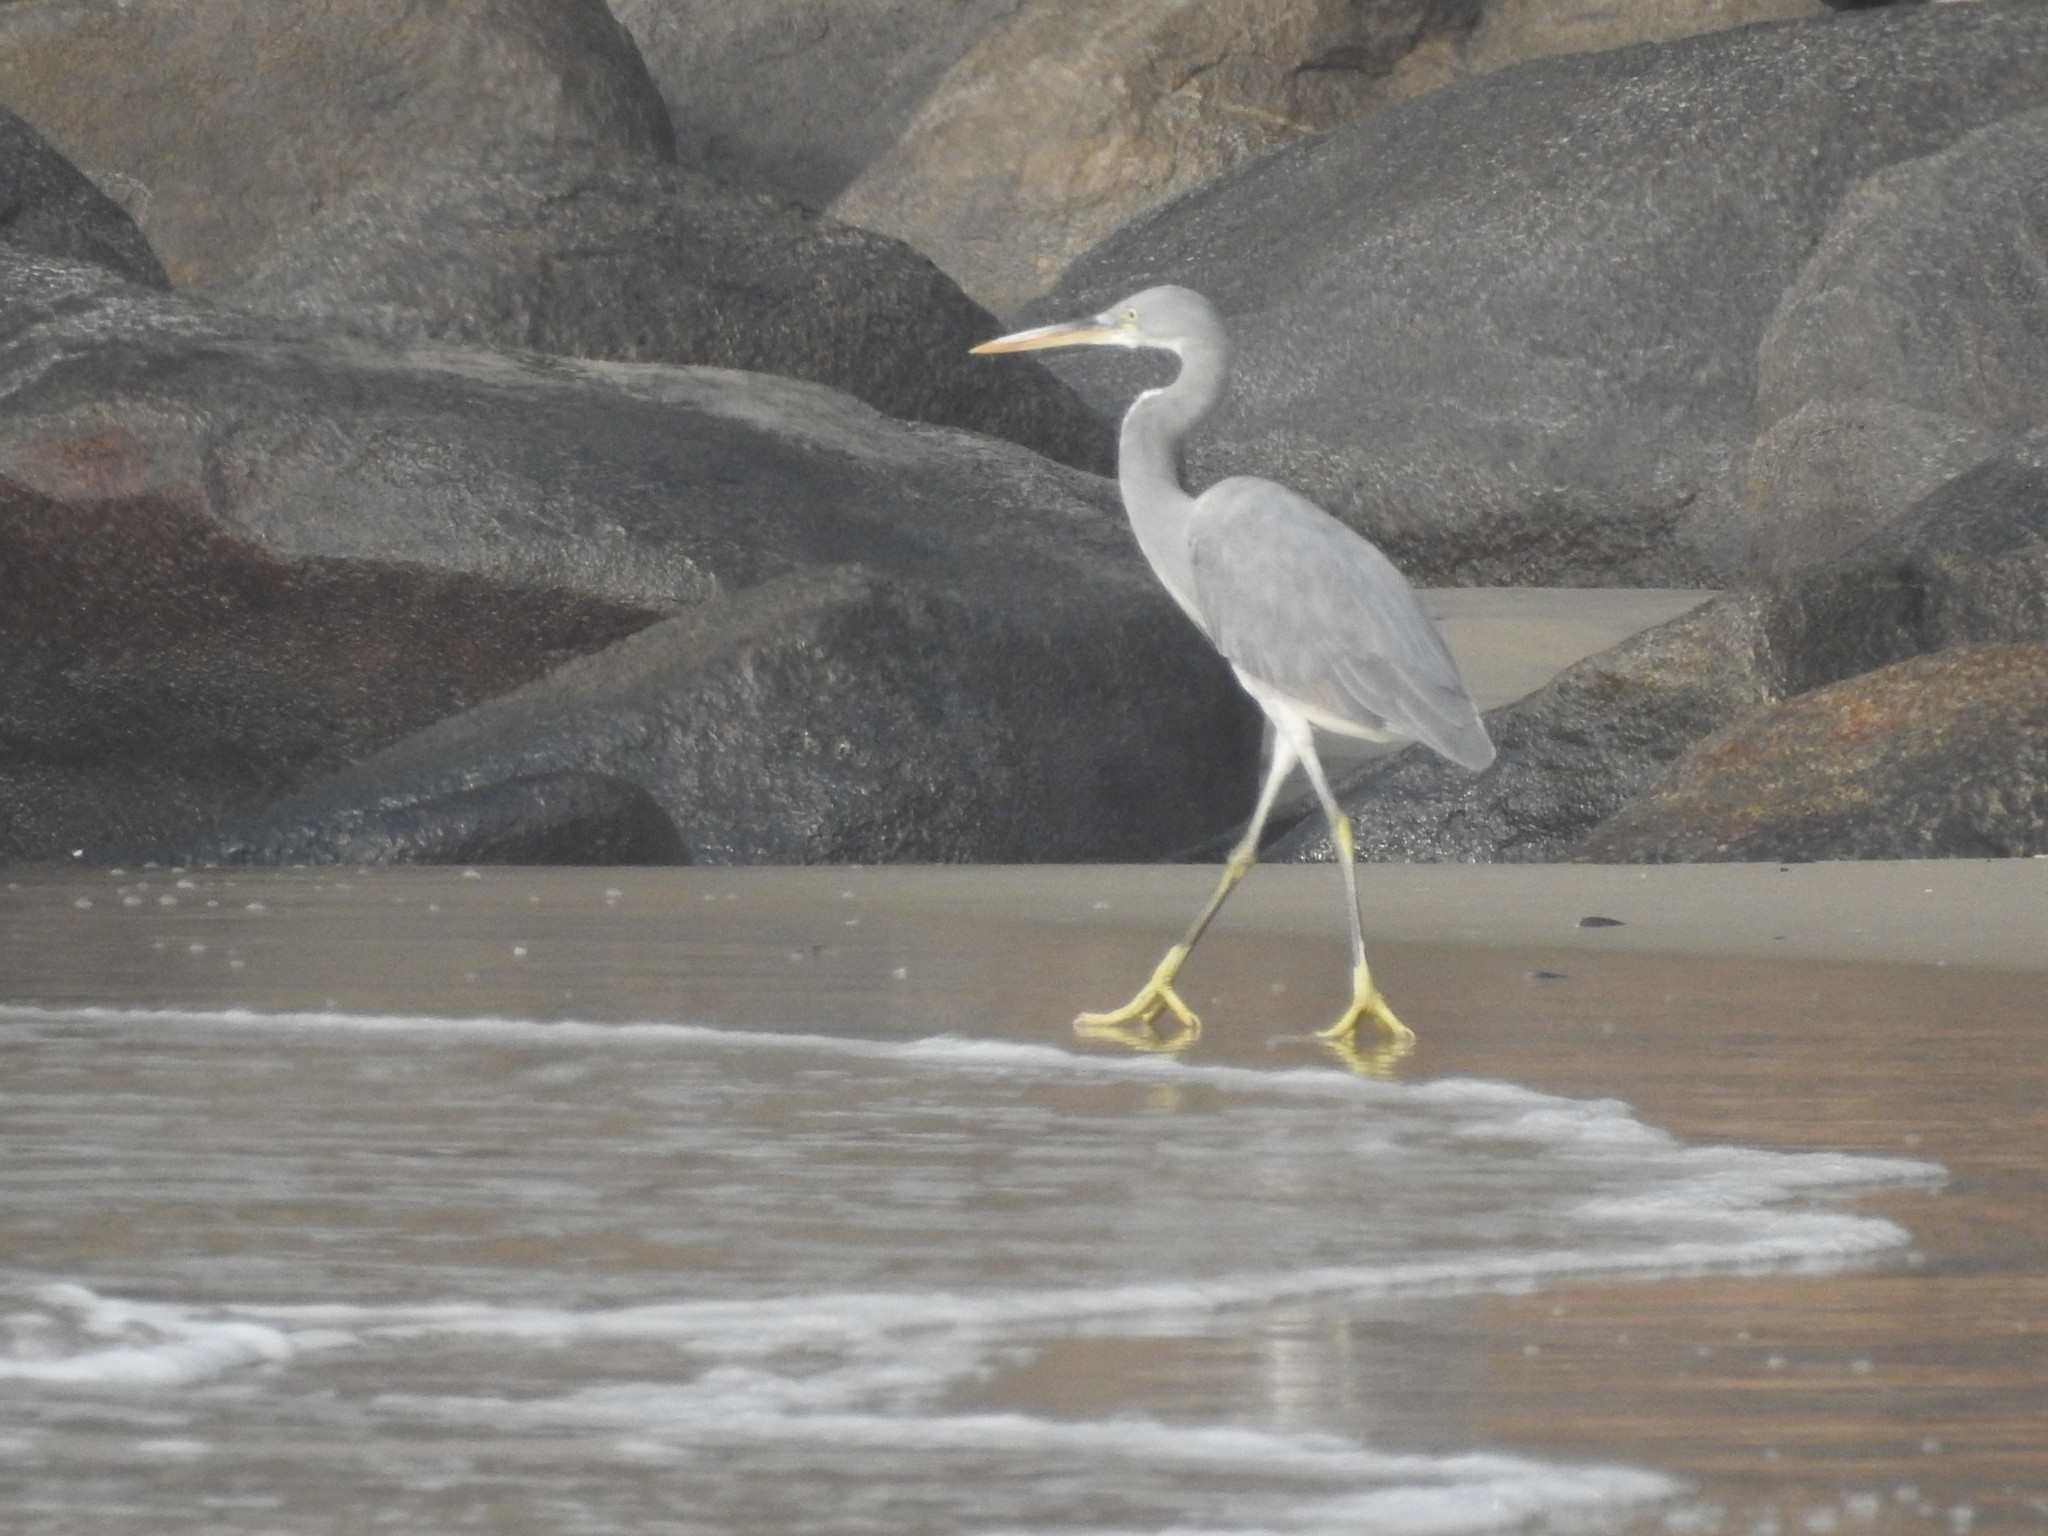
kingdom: Animalia
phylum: Chordata
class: Aves
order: Pelecaniformes
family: Ardeidae
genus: Egretta
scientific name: Egretta gularis
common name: Western reef-heron
